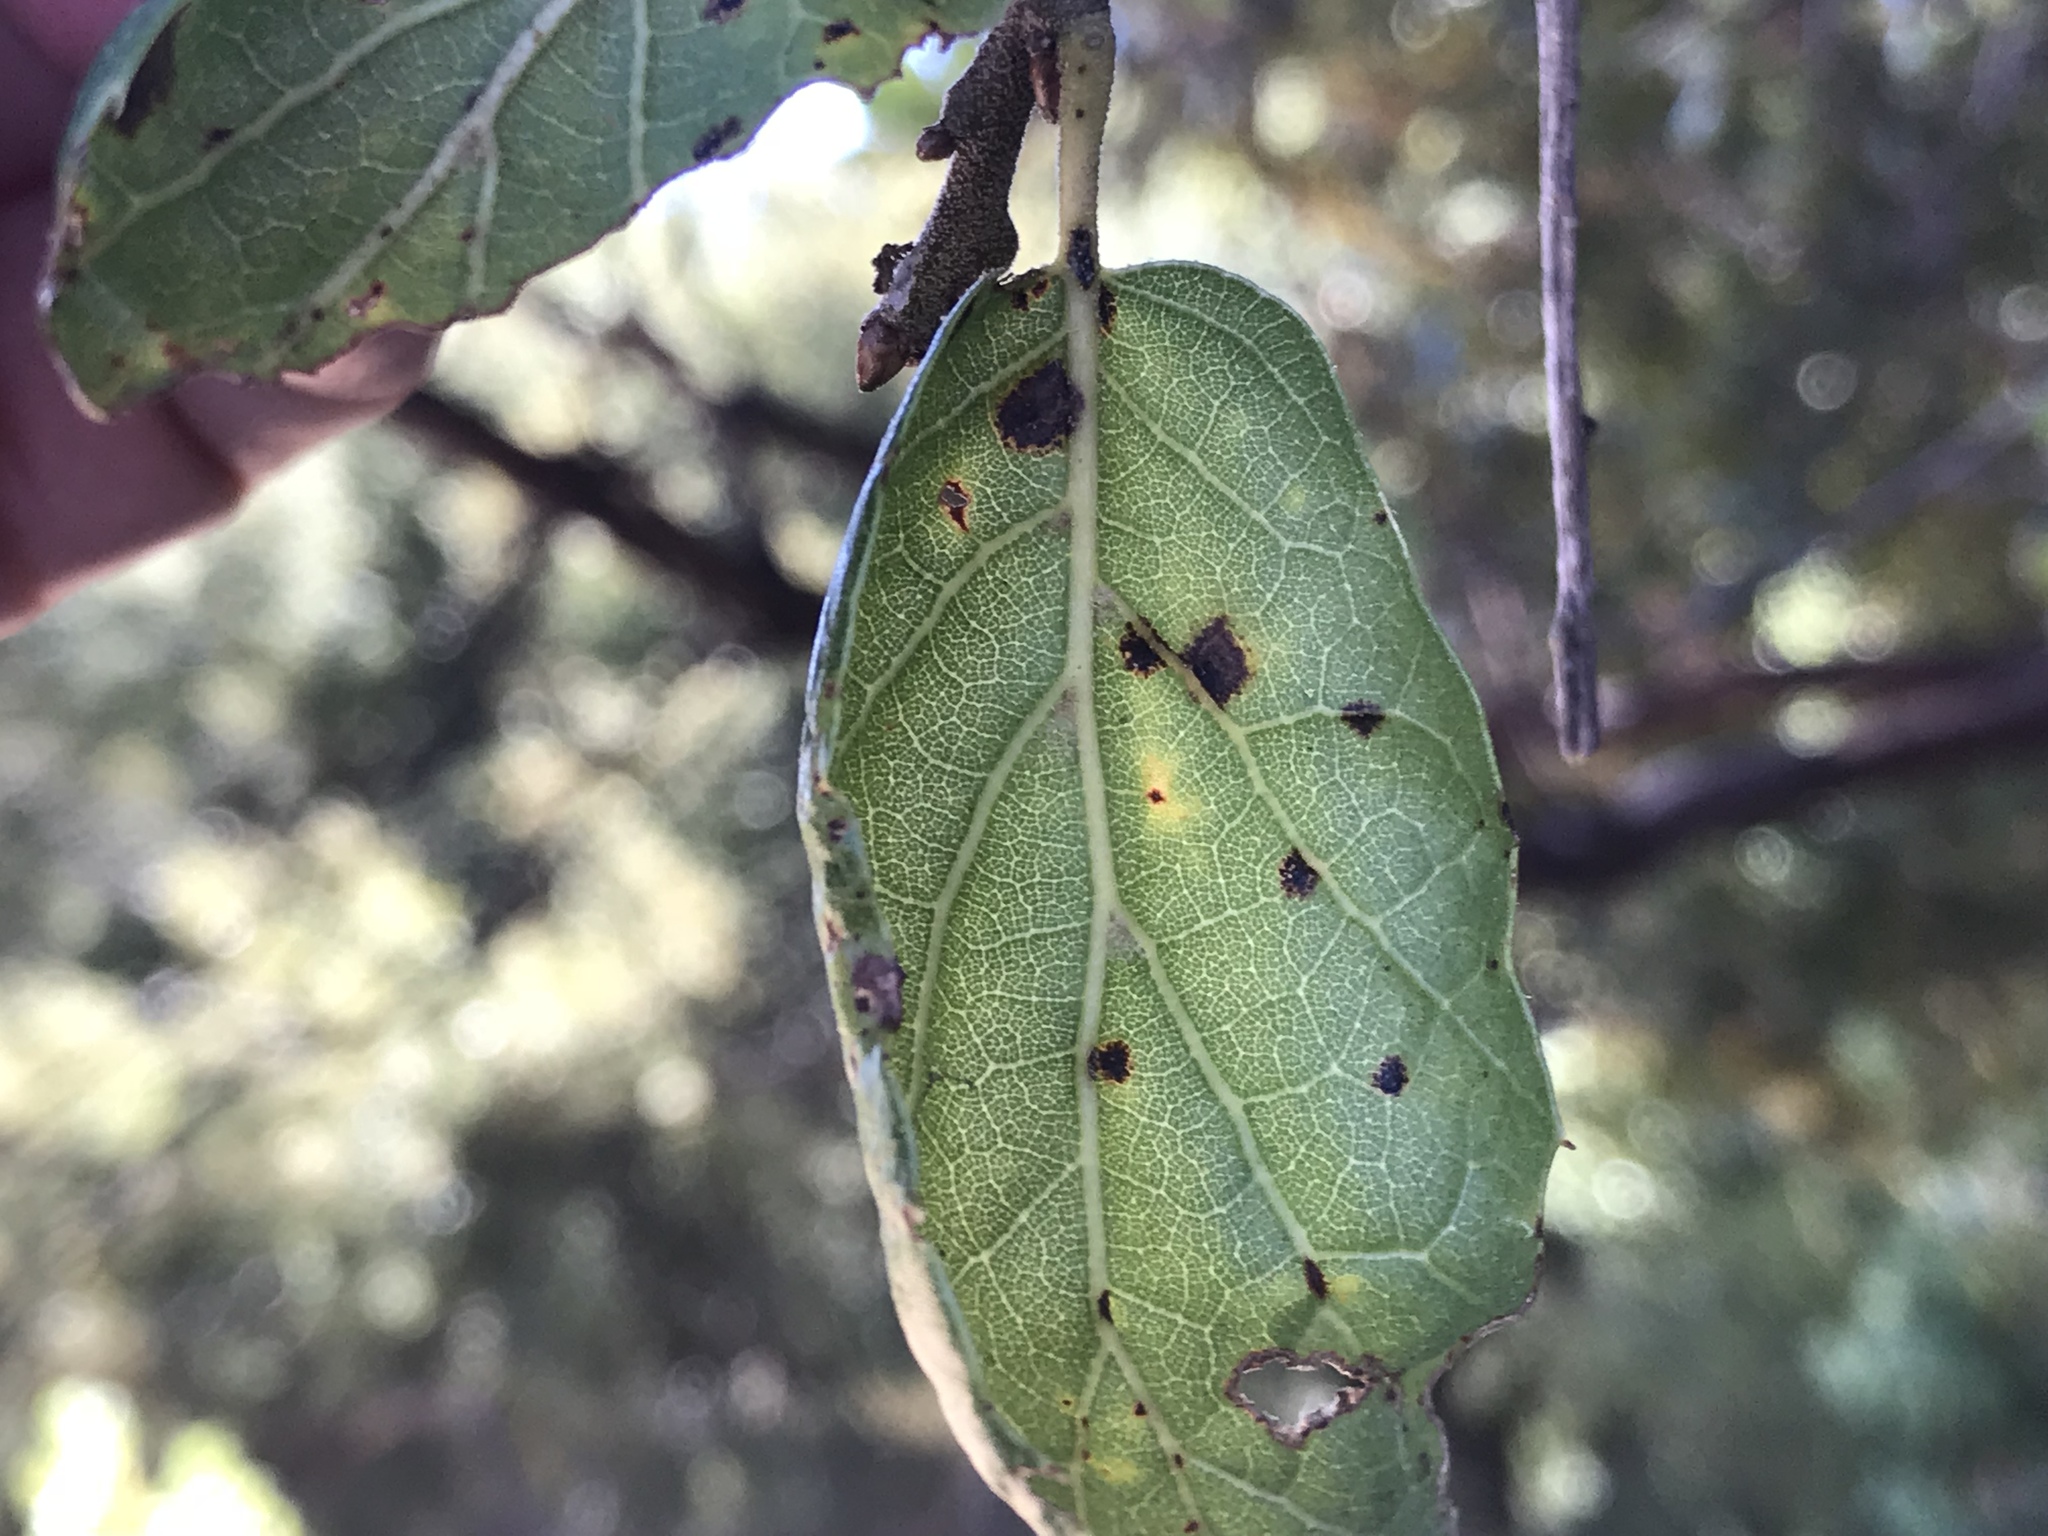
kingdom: Plantae
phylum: Tracheophyta
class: Magnoliopsida
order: Fagales
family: Fagaceae
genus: Quercus
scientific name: Quercus agrifolia
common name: California live oak
